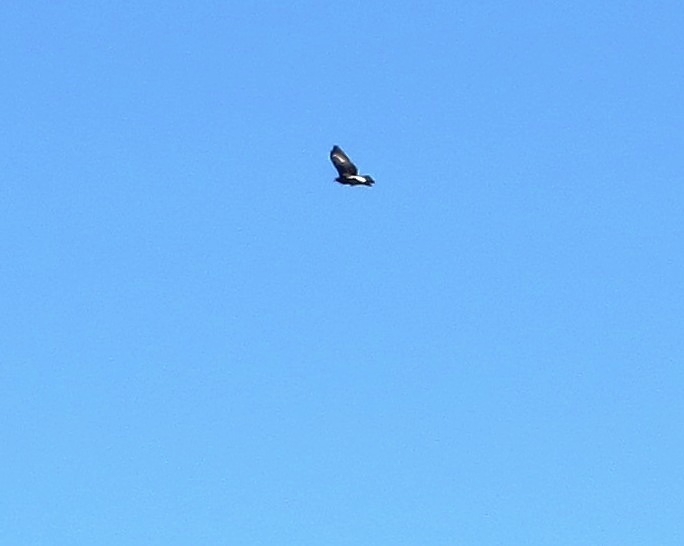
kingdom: Animalia
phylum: Chordata
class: Aves
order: Accipitriformes
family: Accipitridae
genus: Aquila
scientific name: Aquila verreauxii
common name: Verreaux's eagle
